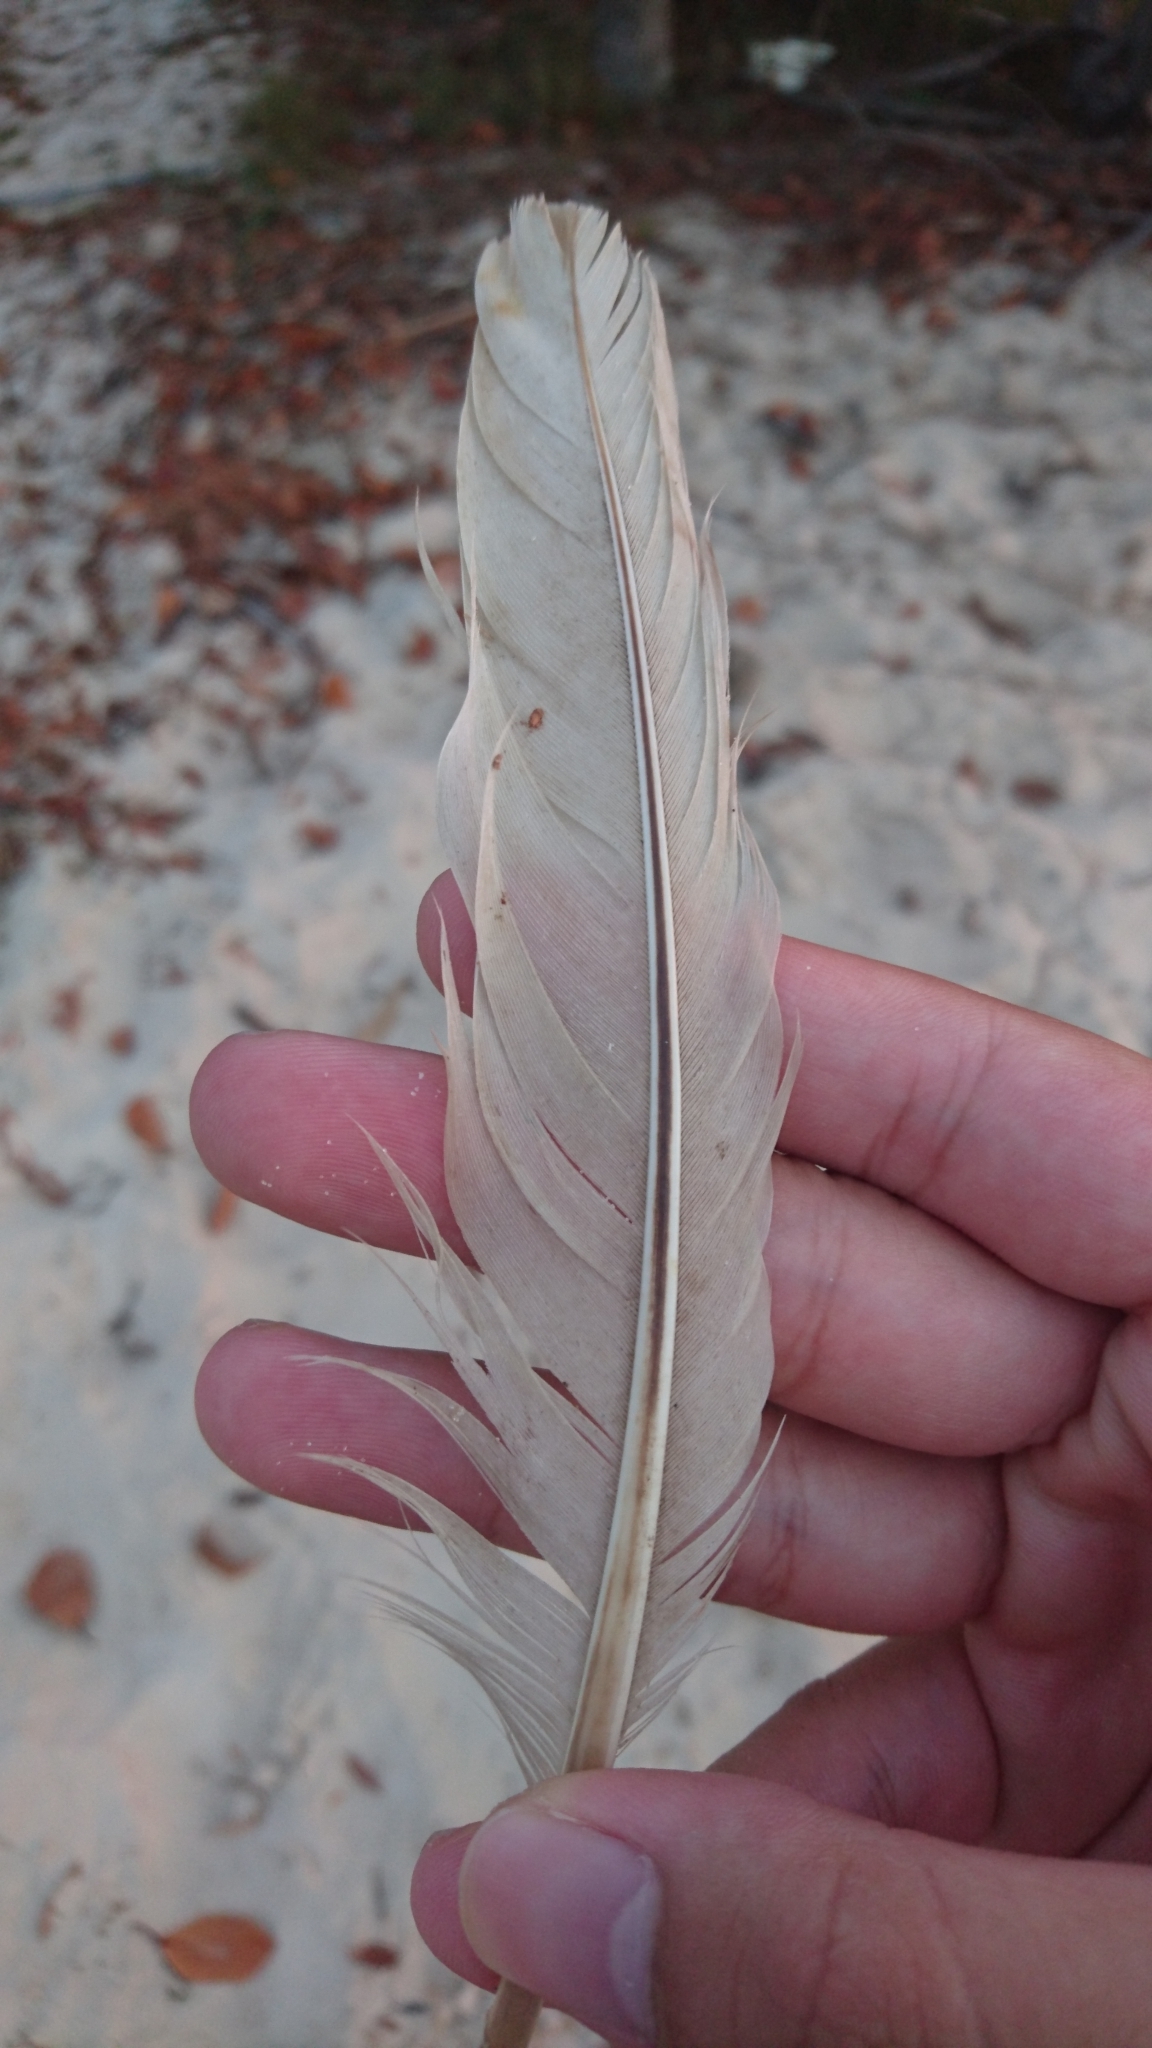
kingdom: Animalia
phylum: Chordata
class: Aves
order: Pelecaniformes
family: Threskiornithidae
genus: Threskiornis
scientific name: Threskiornis molucca
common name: Australian white ibis
